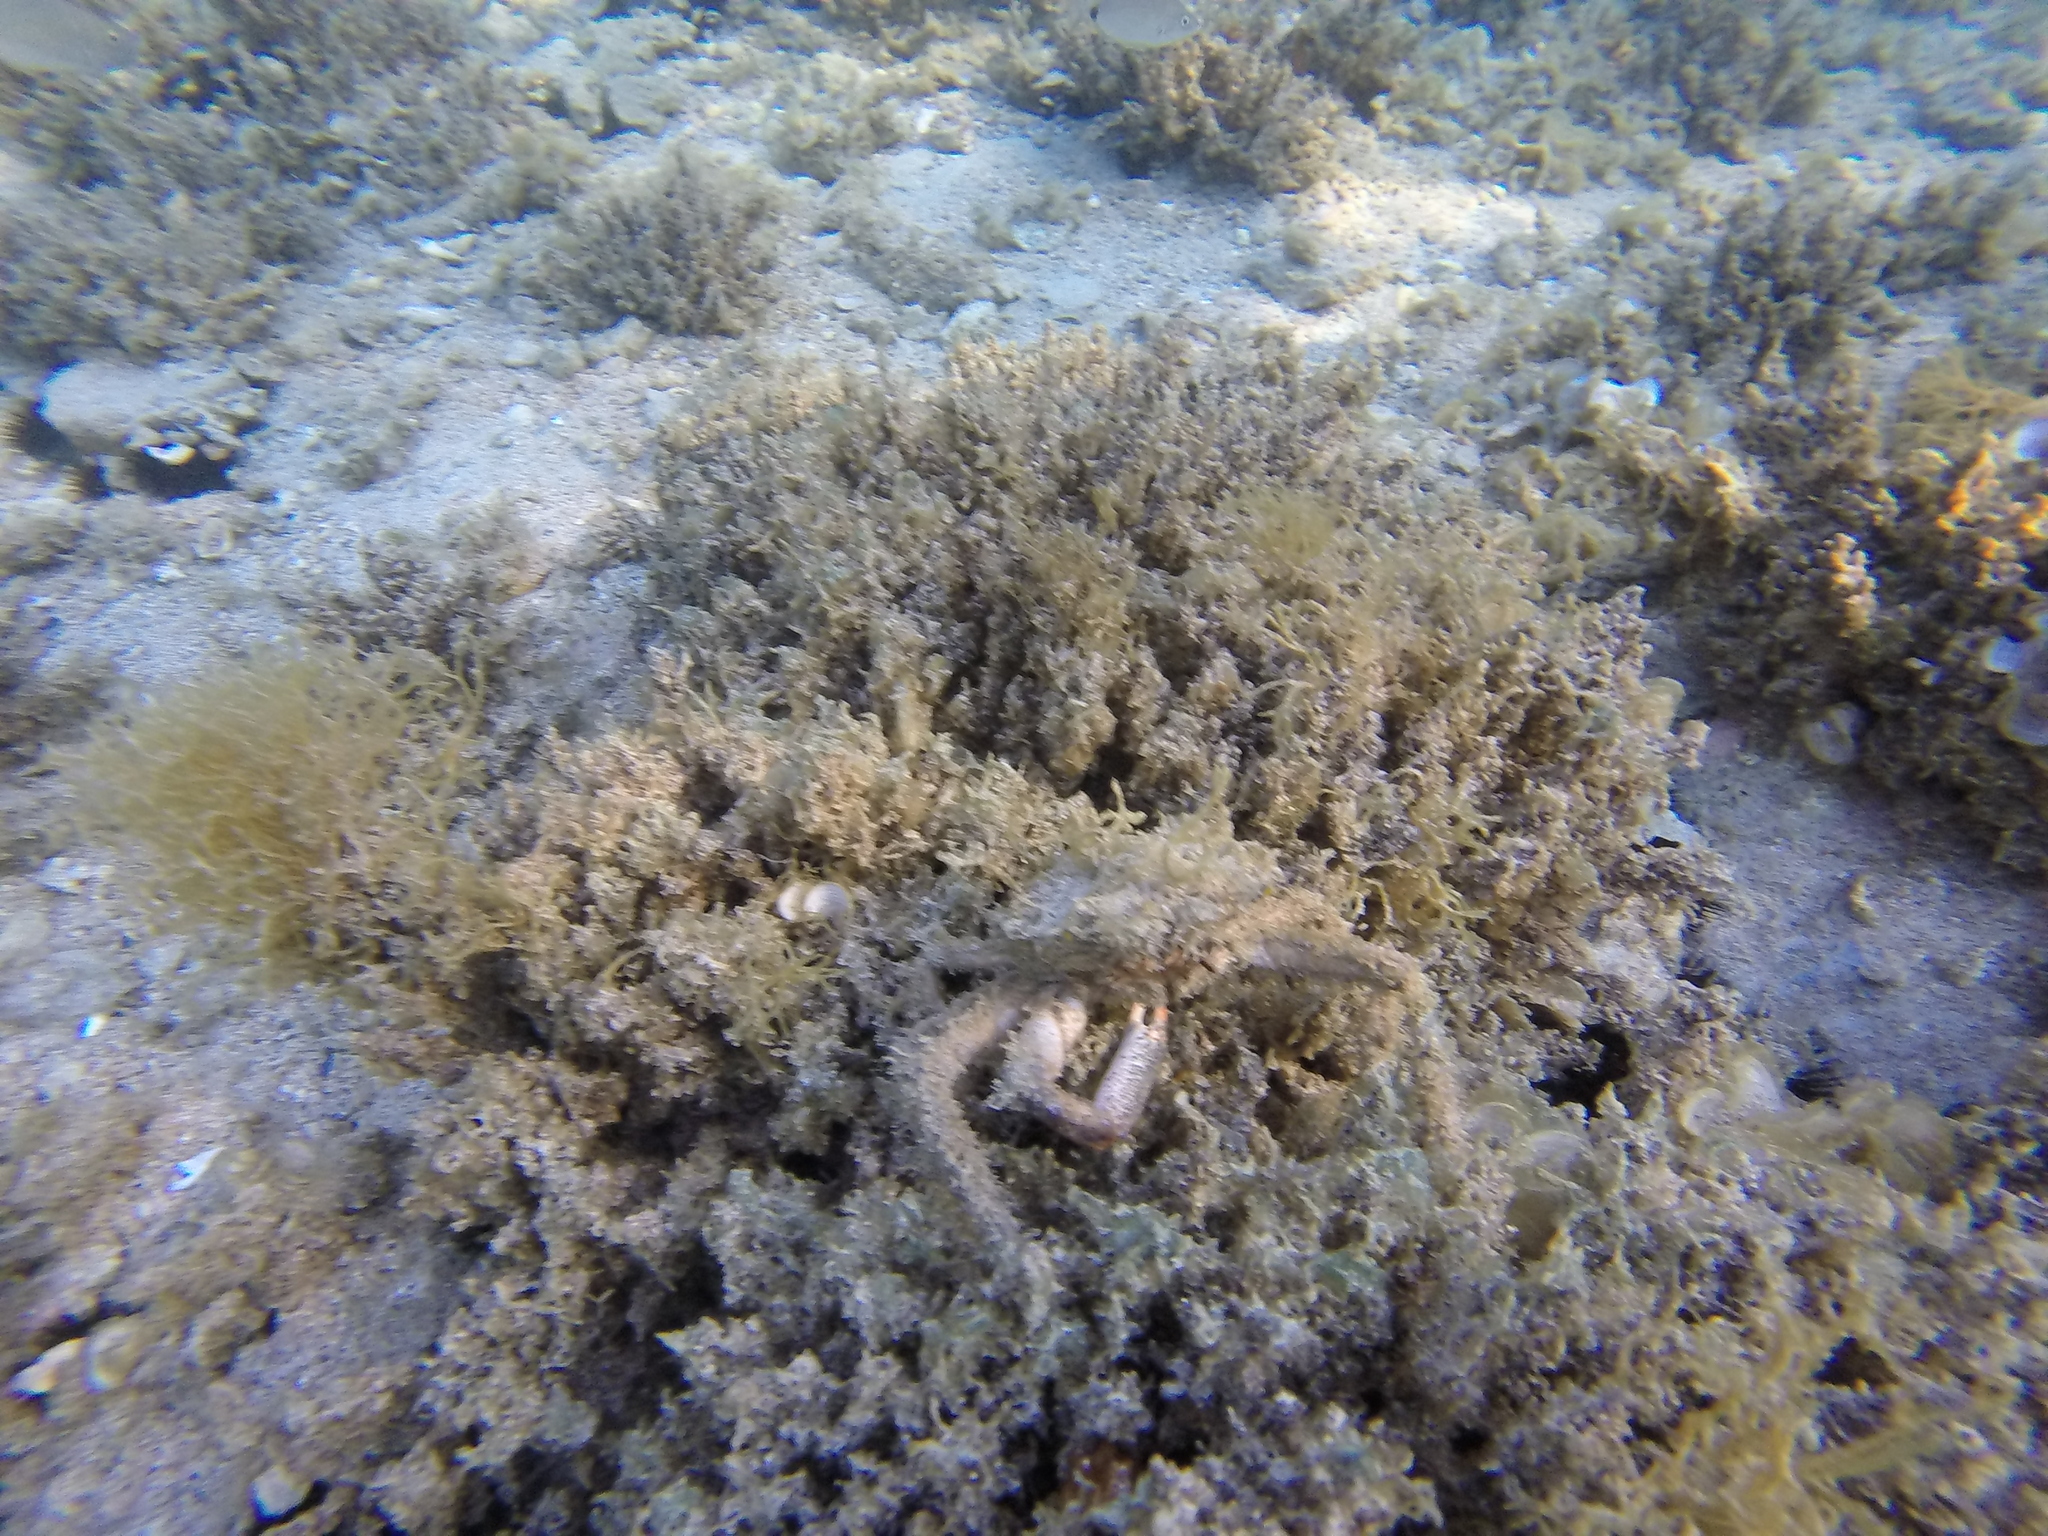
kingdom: Animalia
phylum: Arthropoda
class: Malacostraca
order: Decapoda
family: Majidae
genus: Maja
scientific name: Maja crispata
